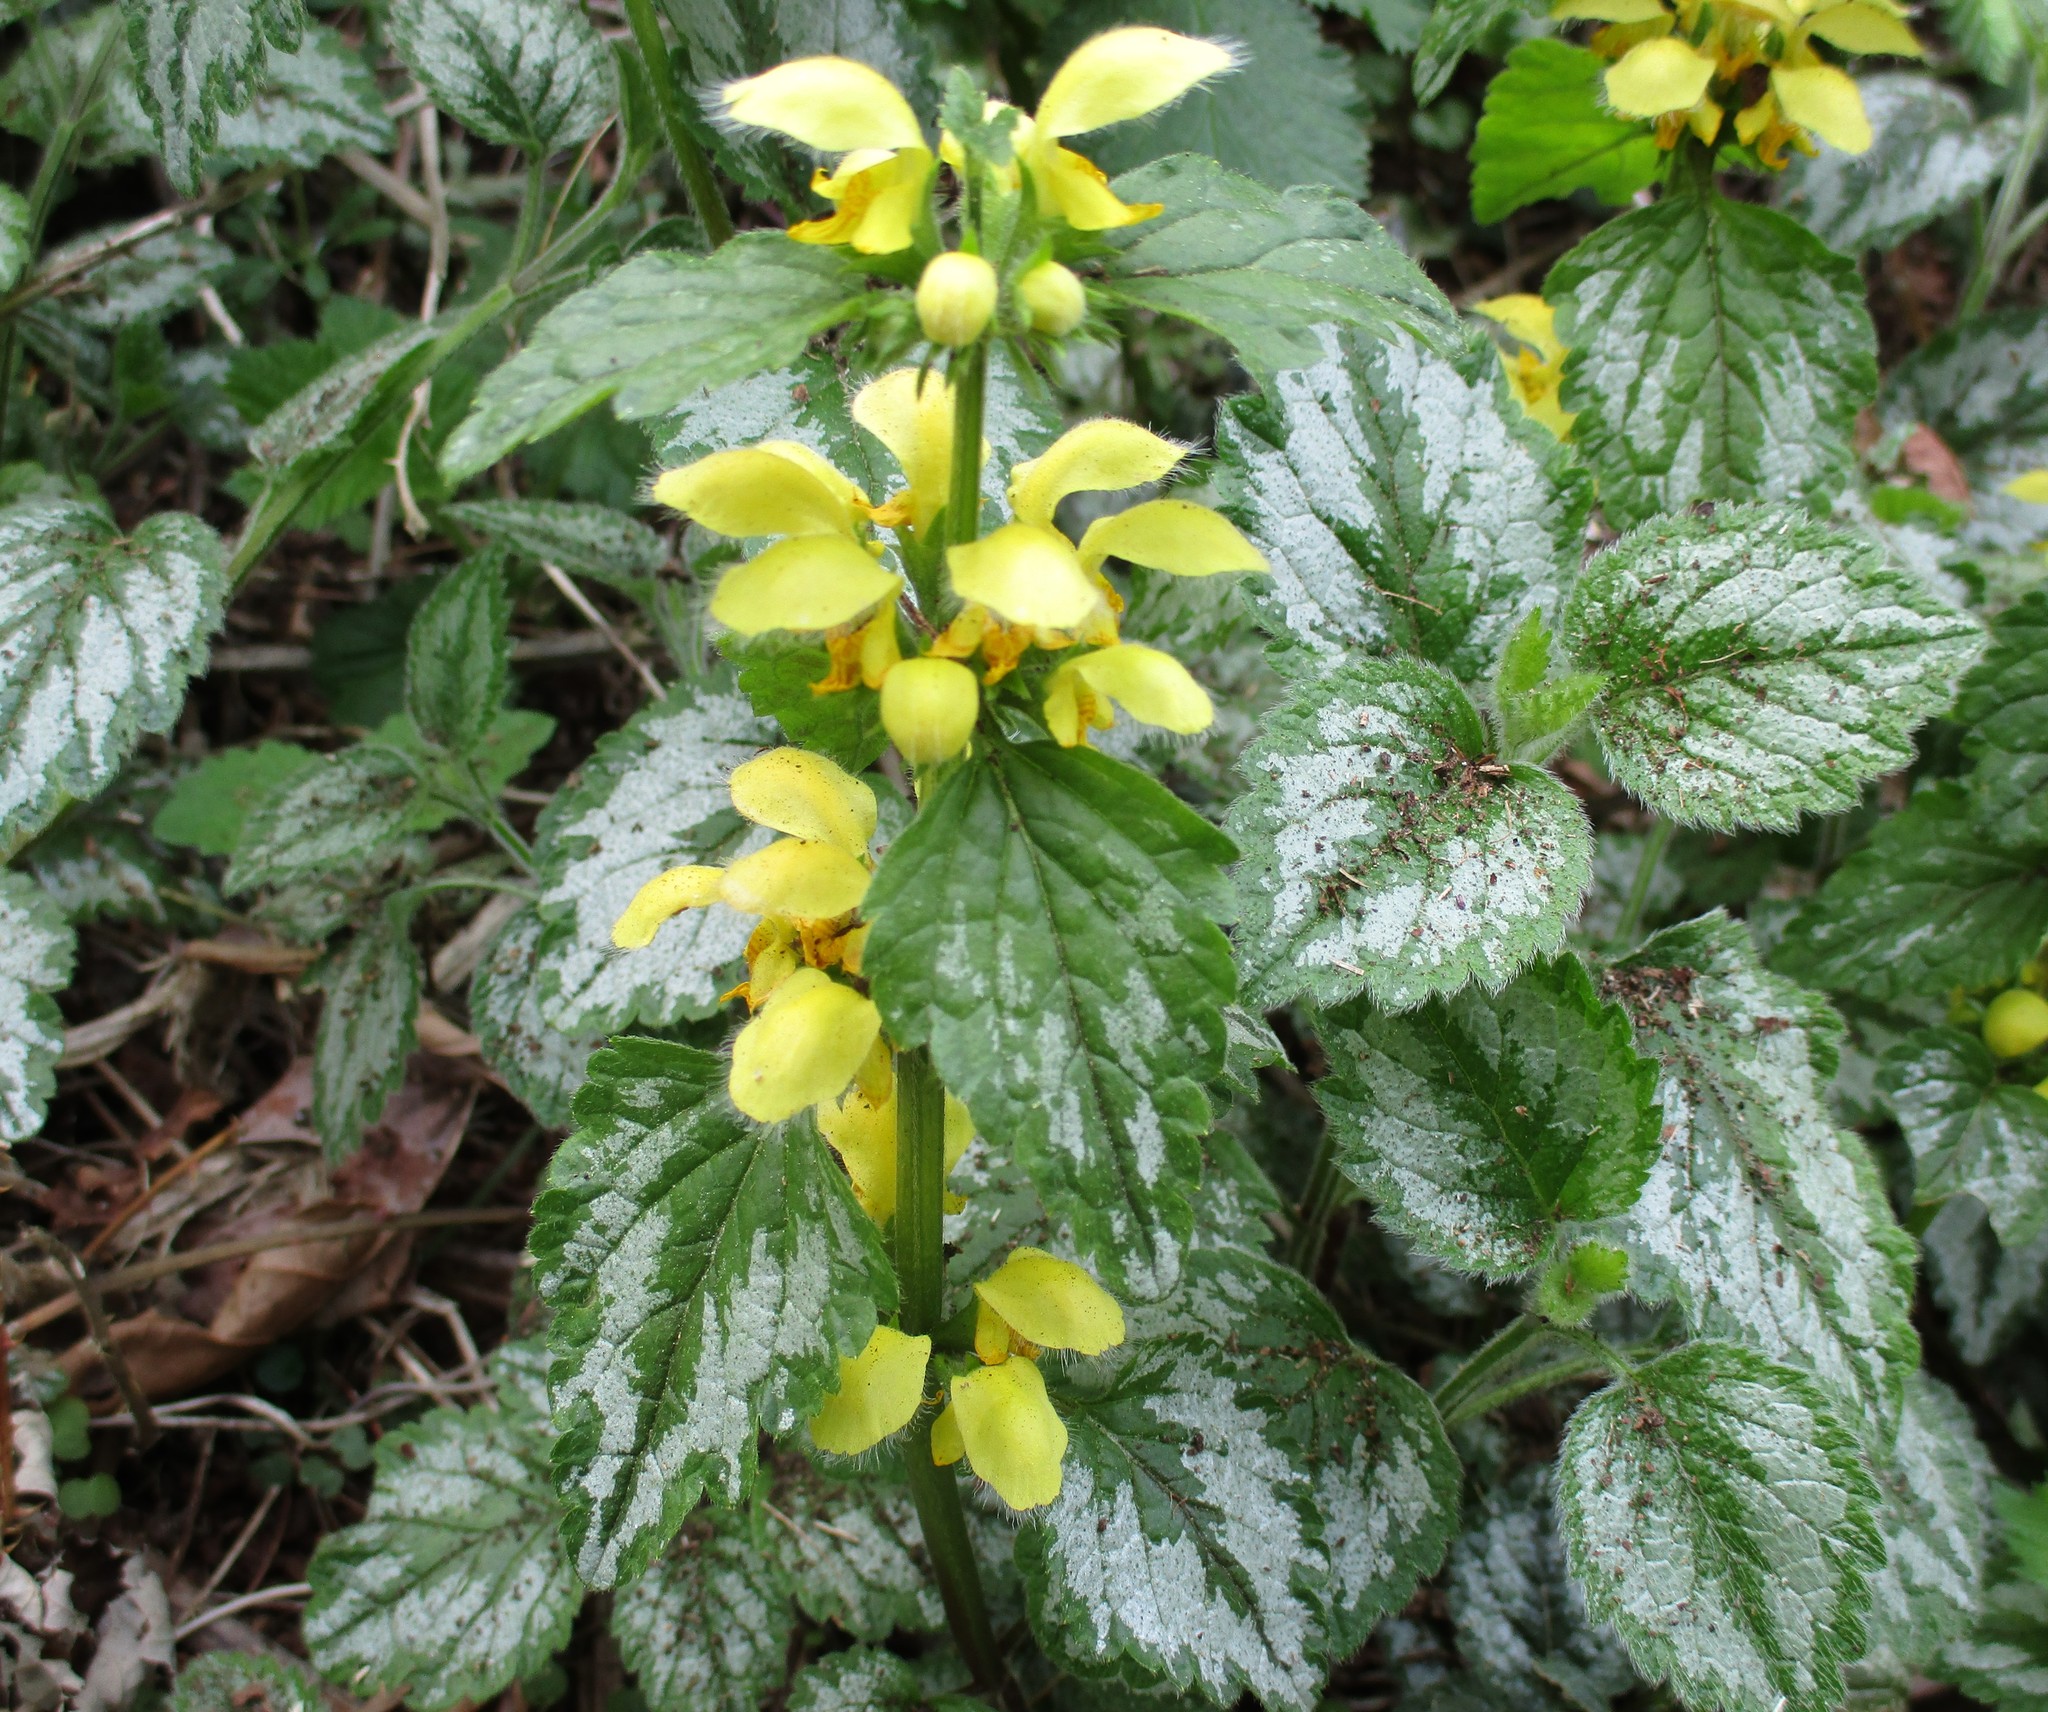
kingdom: Plantae
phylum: Tracheophyta
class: Magnoliopsida
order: Lamiales
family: Lamiaceae
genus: Lamium
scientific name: Lamium galeobdolon
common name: Yellow archangel
